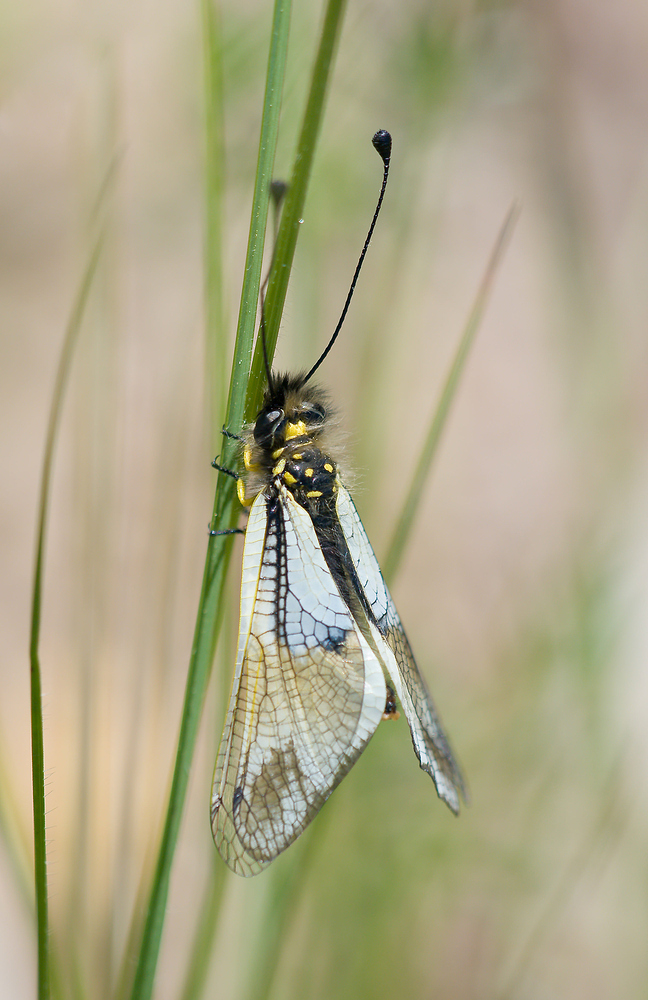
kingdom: Animalia
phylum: Arthropoda
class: Insecta
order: Neuroptera
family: Ascalaphidae
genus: Libelloides
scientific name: Libelloides lacteus
